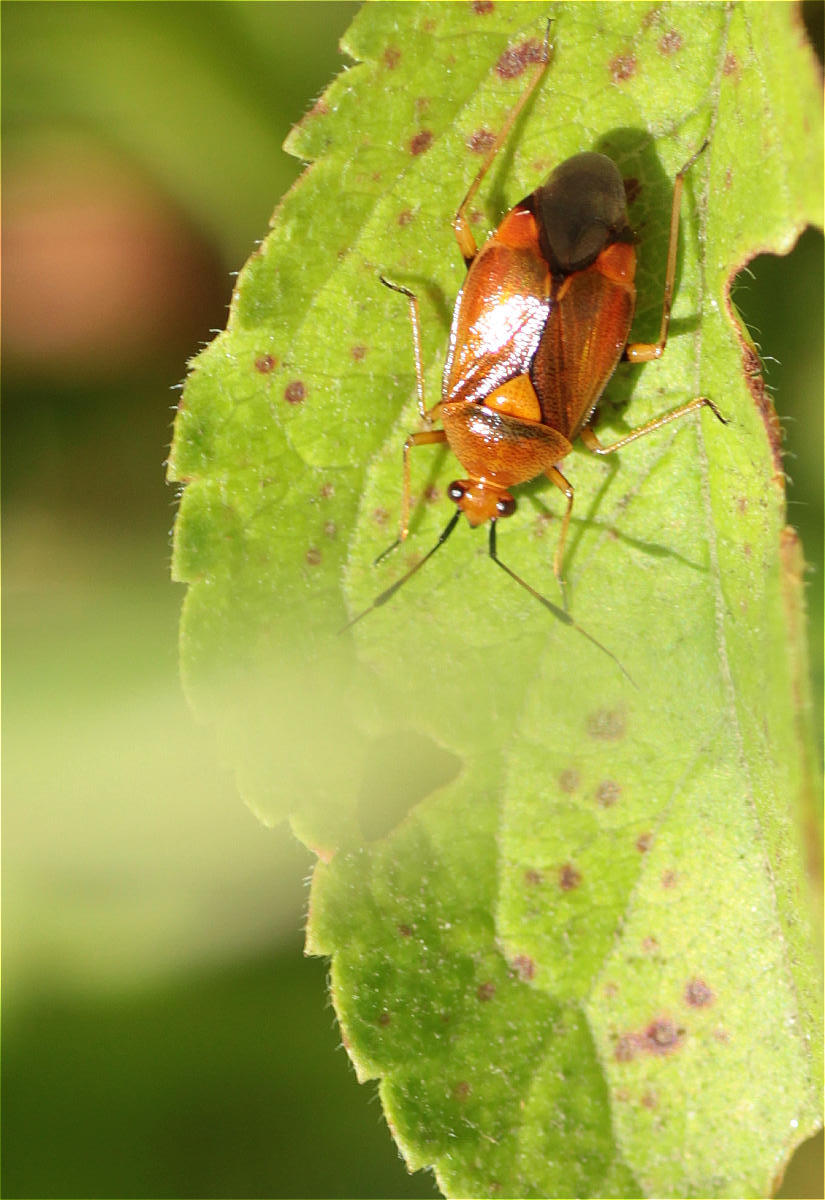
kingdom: Animalia
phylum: Arthropoda
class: Insecta
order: Hemiptera
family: Miridae
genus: Deraeocoris
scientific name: Deraeocoris ruber
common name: Plant bug
